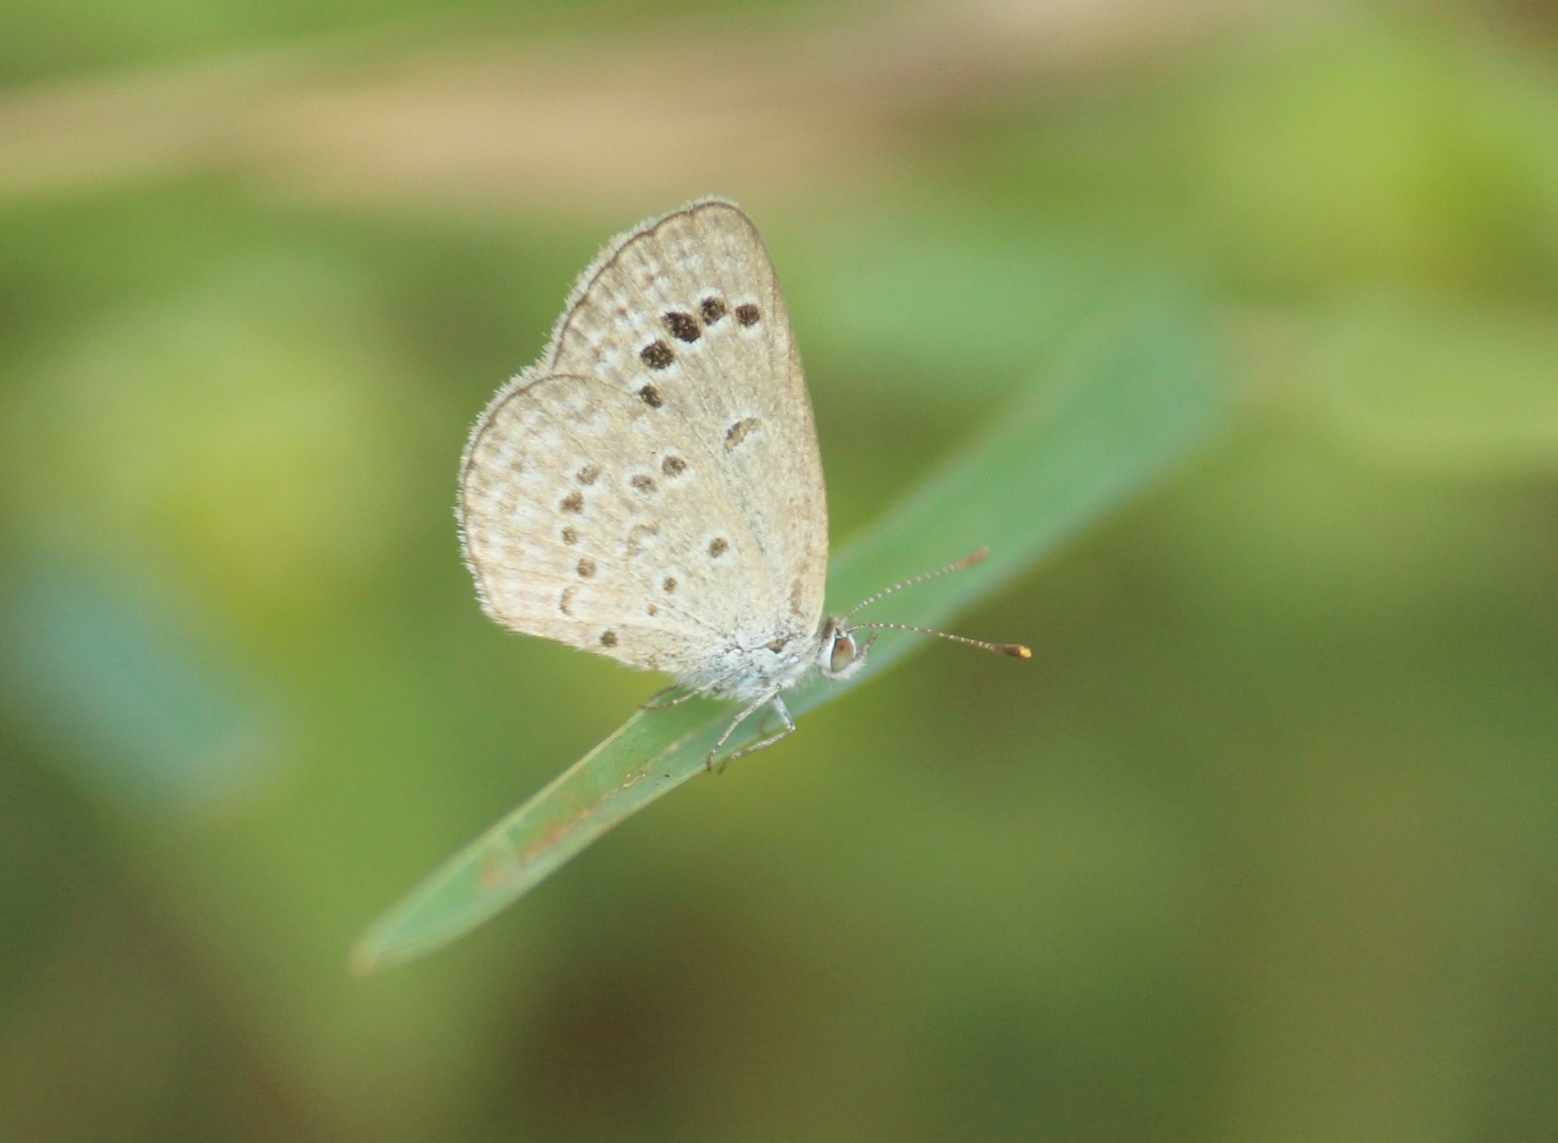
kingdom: Animalia
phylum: Arthropoda
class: Insecta
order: Lepidoptera
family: Lycaenidae
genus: Zizina
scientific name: Zizina otis
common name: Lesser grass blue
